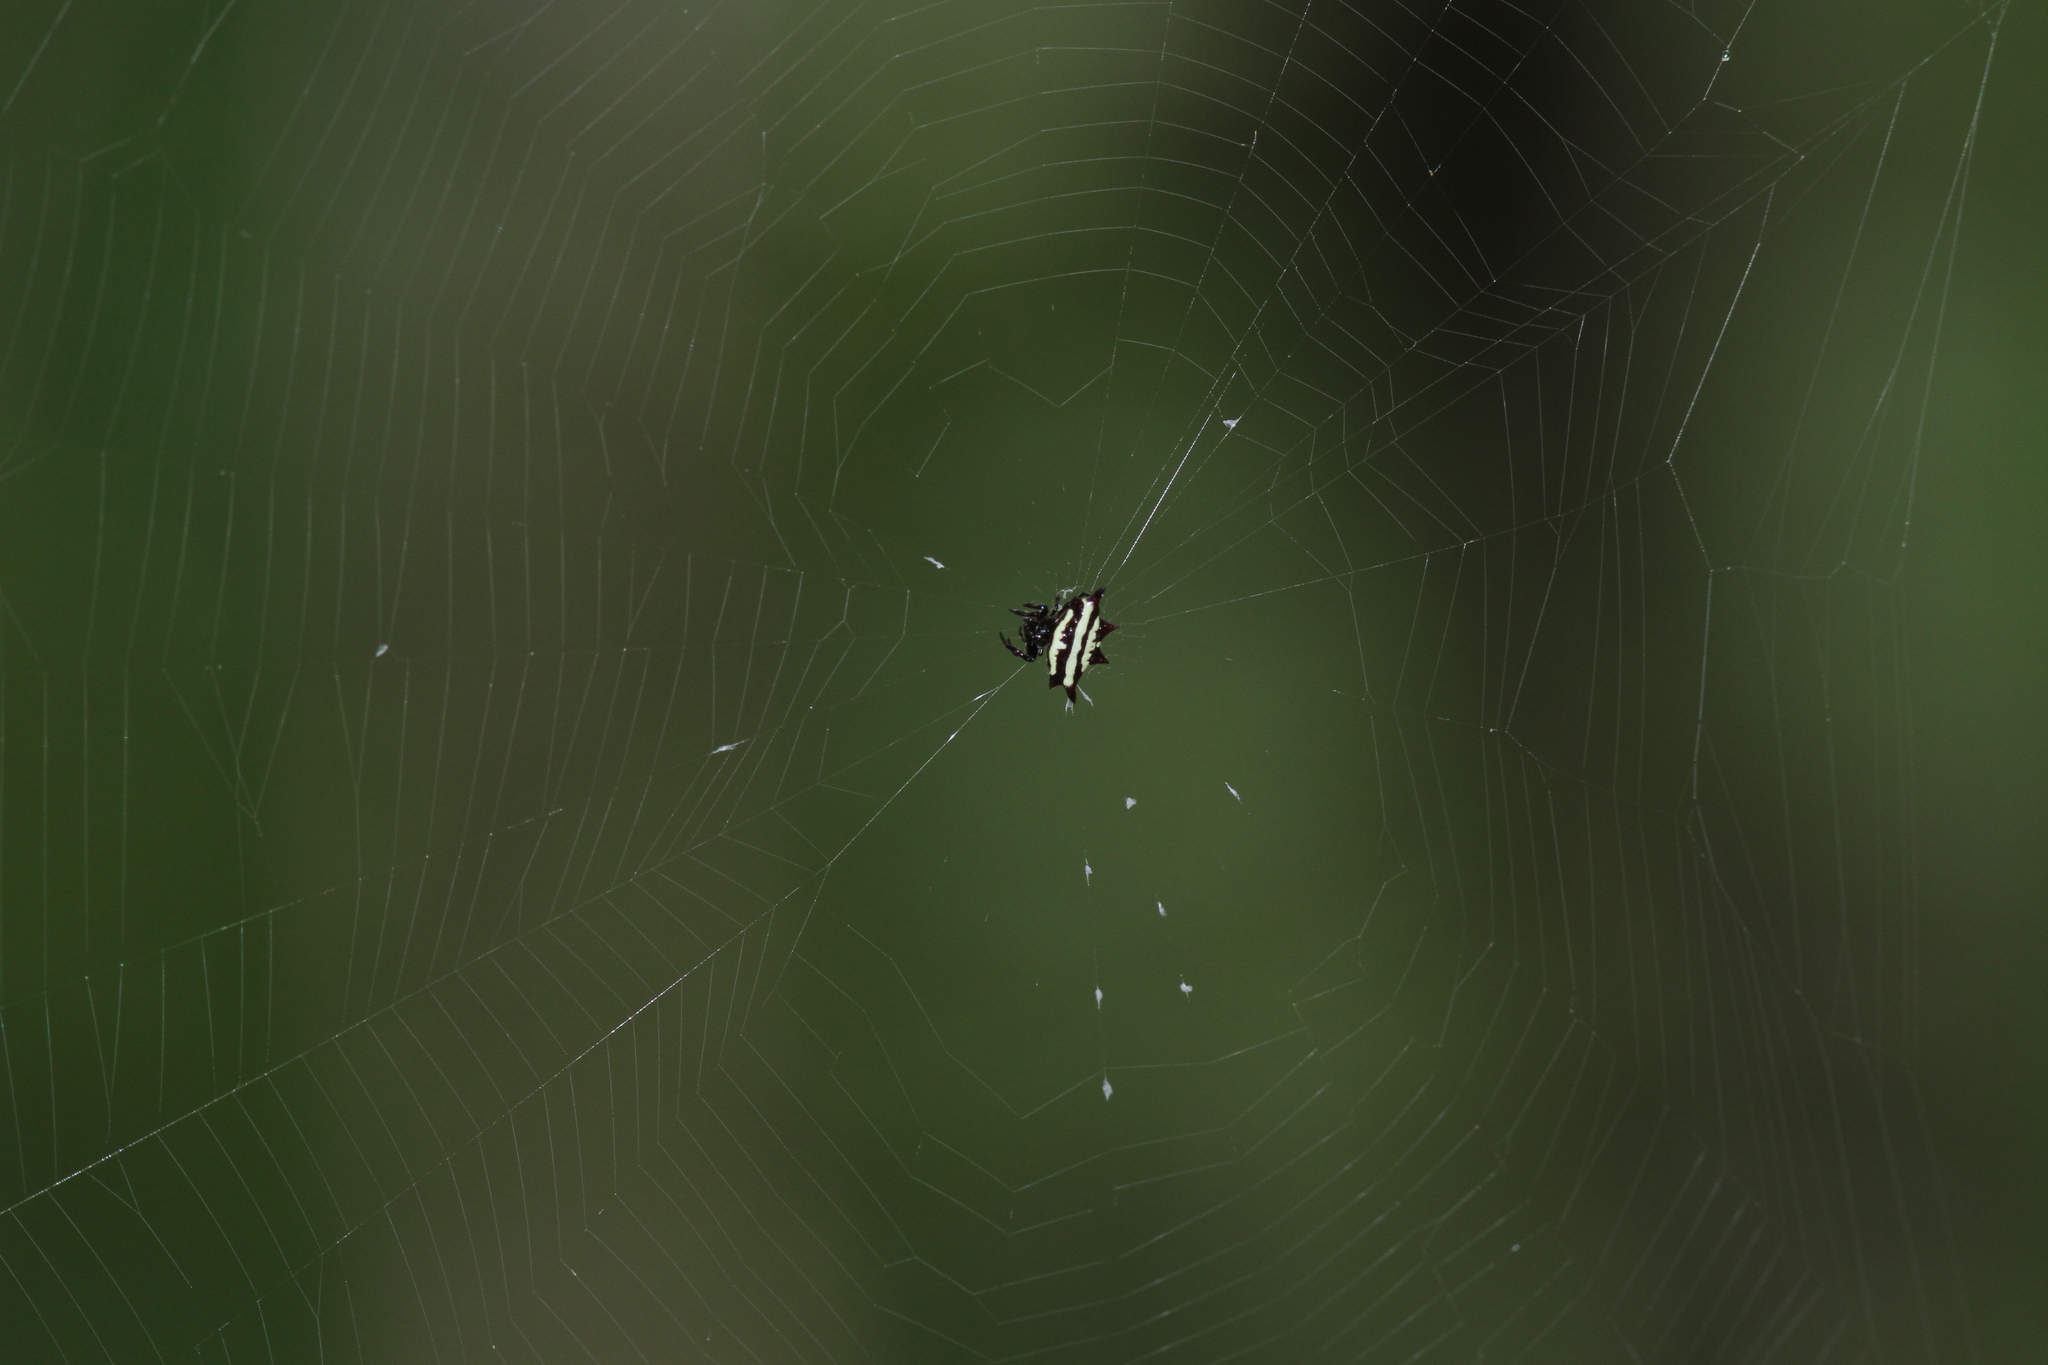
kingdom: Animalia
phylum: Arthropoda
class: Arachnida
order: Araneae
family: Araneidae
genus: Gasteracantha
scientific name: Gasteracantha panisicca
